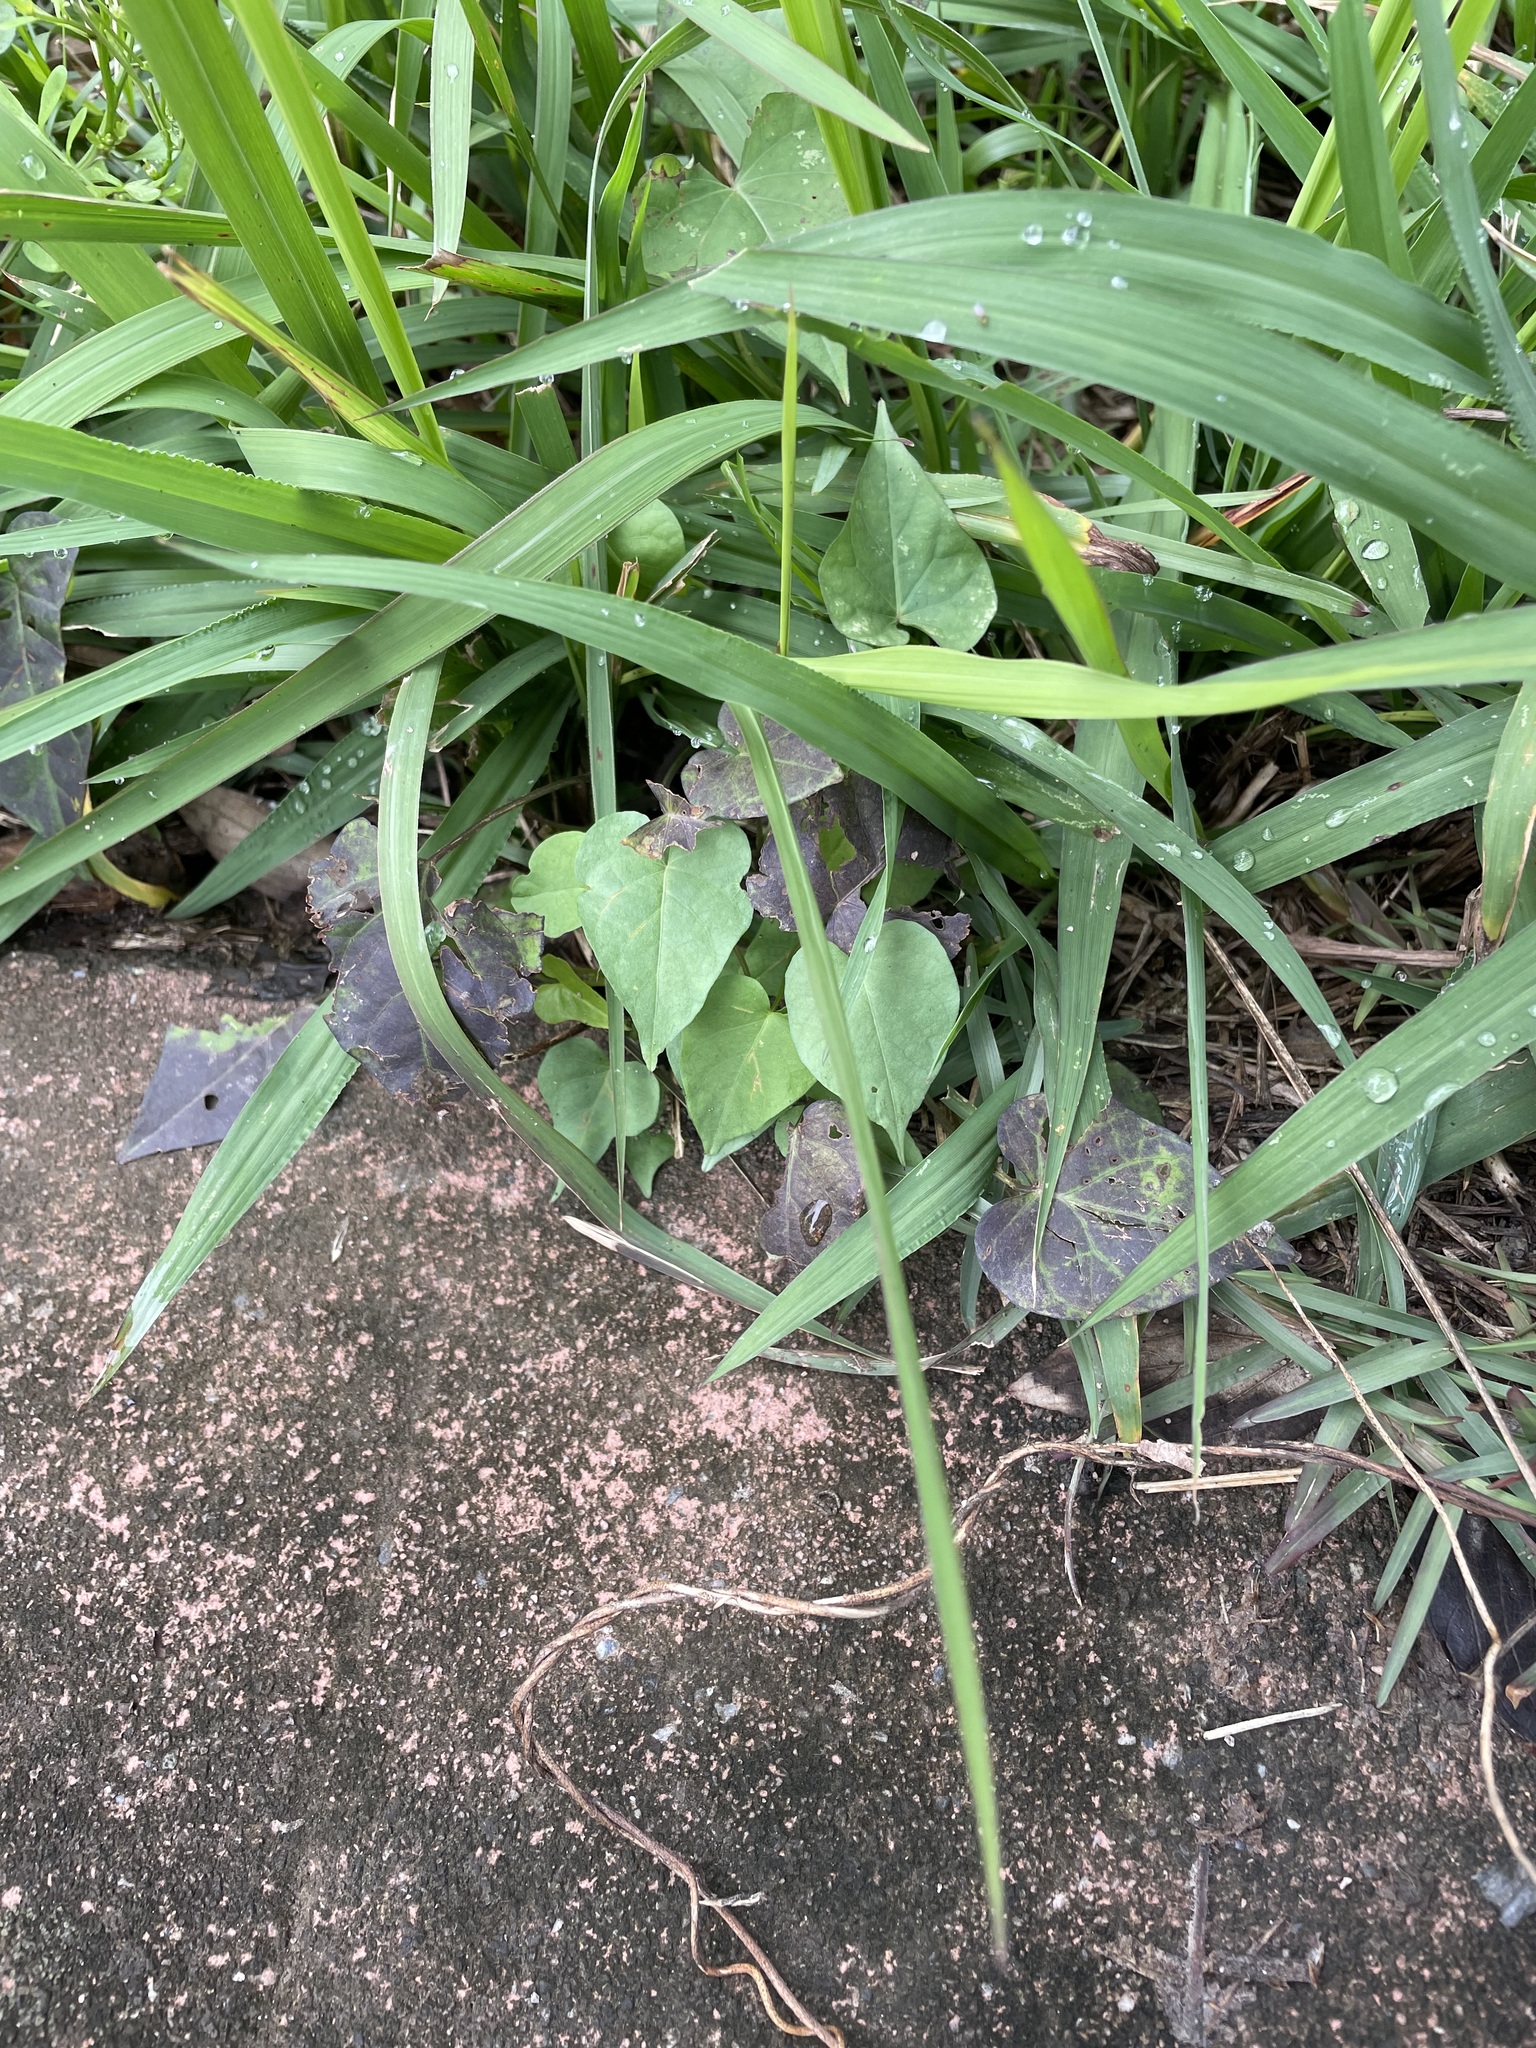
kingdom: Plantae
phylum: Tracheophyta
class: Magnoliopsida
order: Solanales
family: Convolvulaceae
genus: Ipomoea
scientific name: Ipomoea triloba
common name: Little-bell
